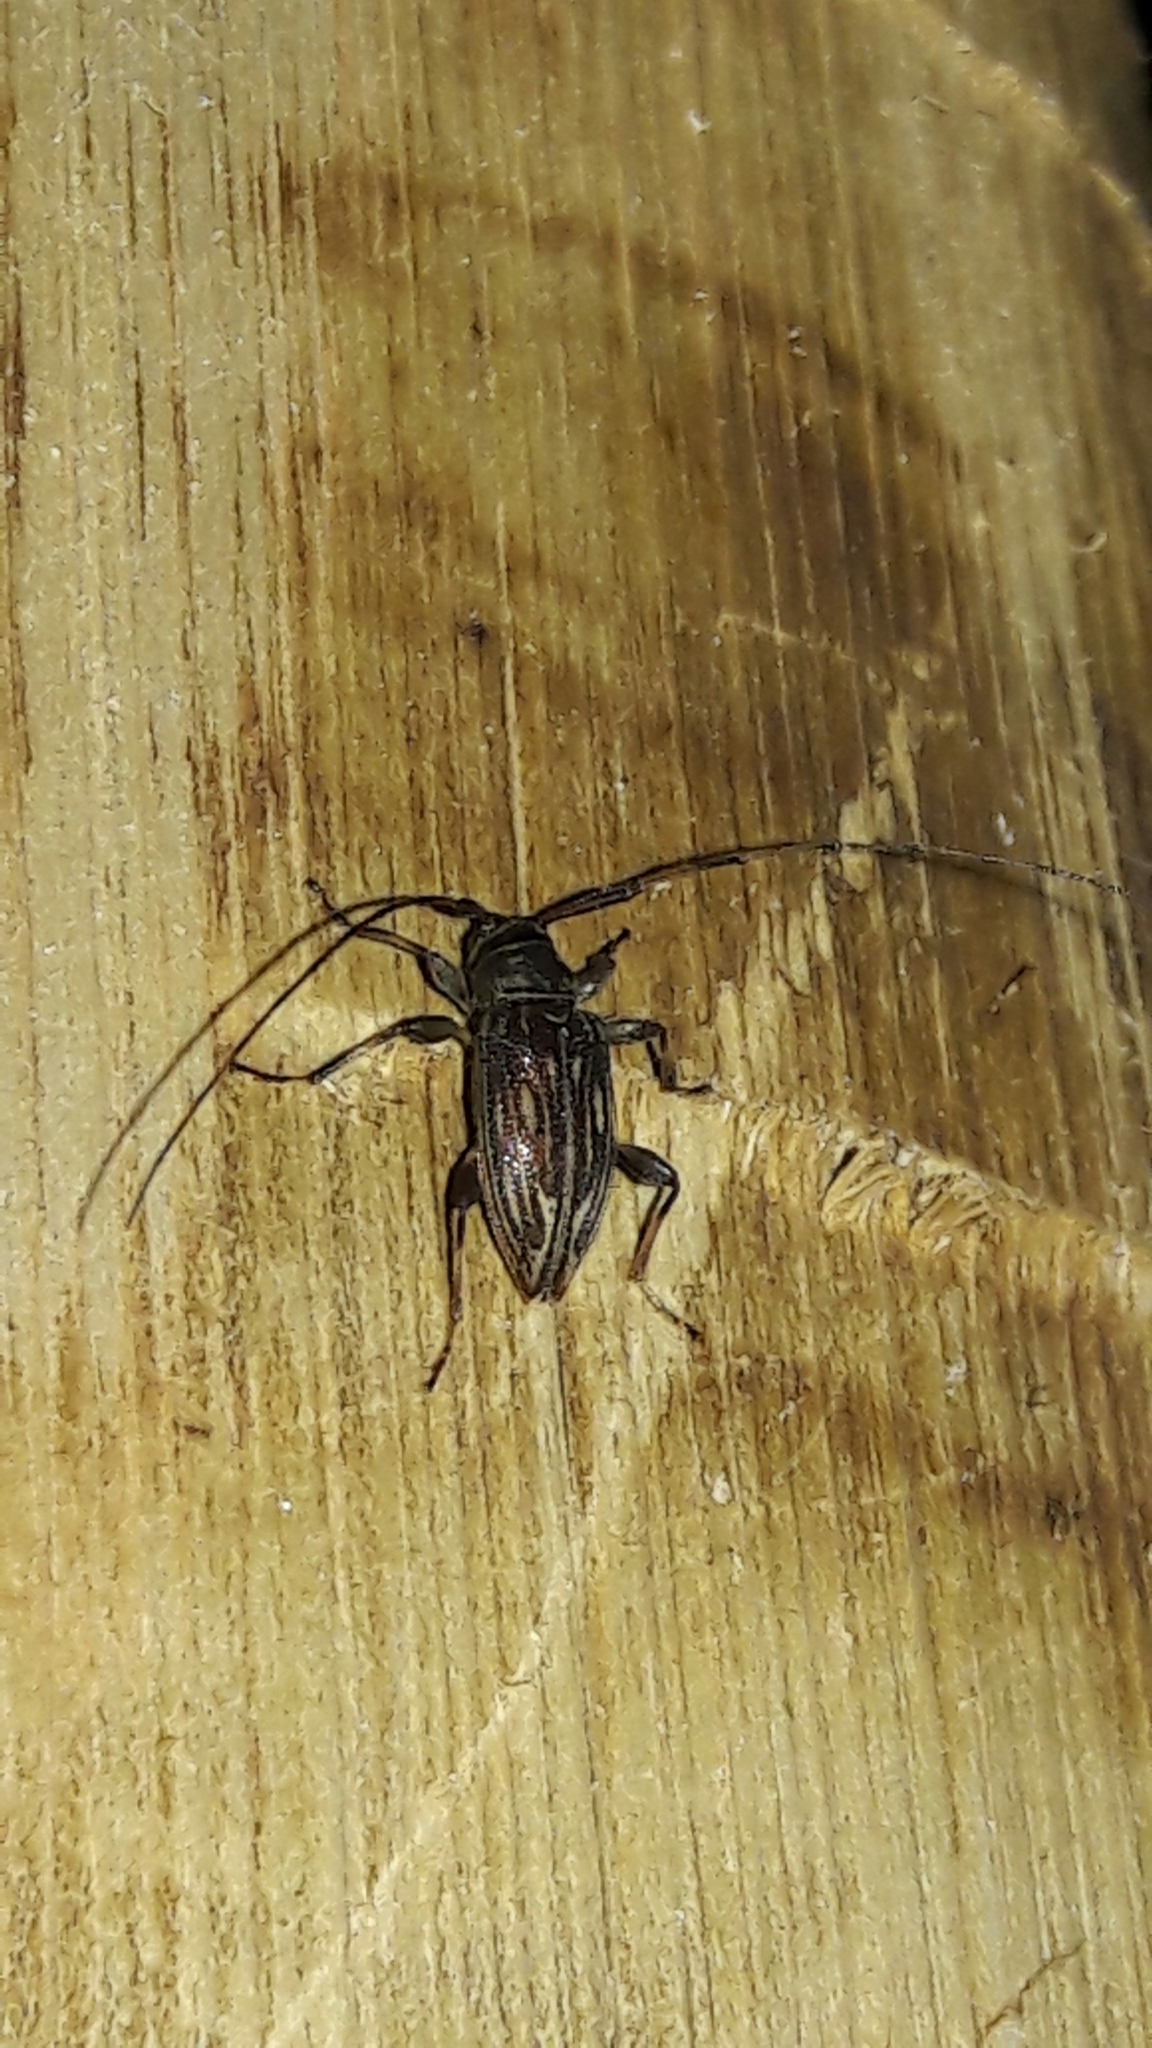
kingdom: Animalia
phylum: Arthropoda
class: Insecta
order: Coleoptera
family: Cerambycidae
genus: Leiopus
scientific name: Leiopus convexus
